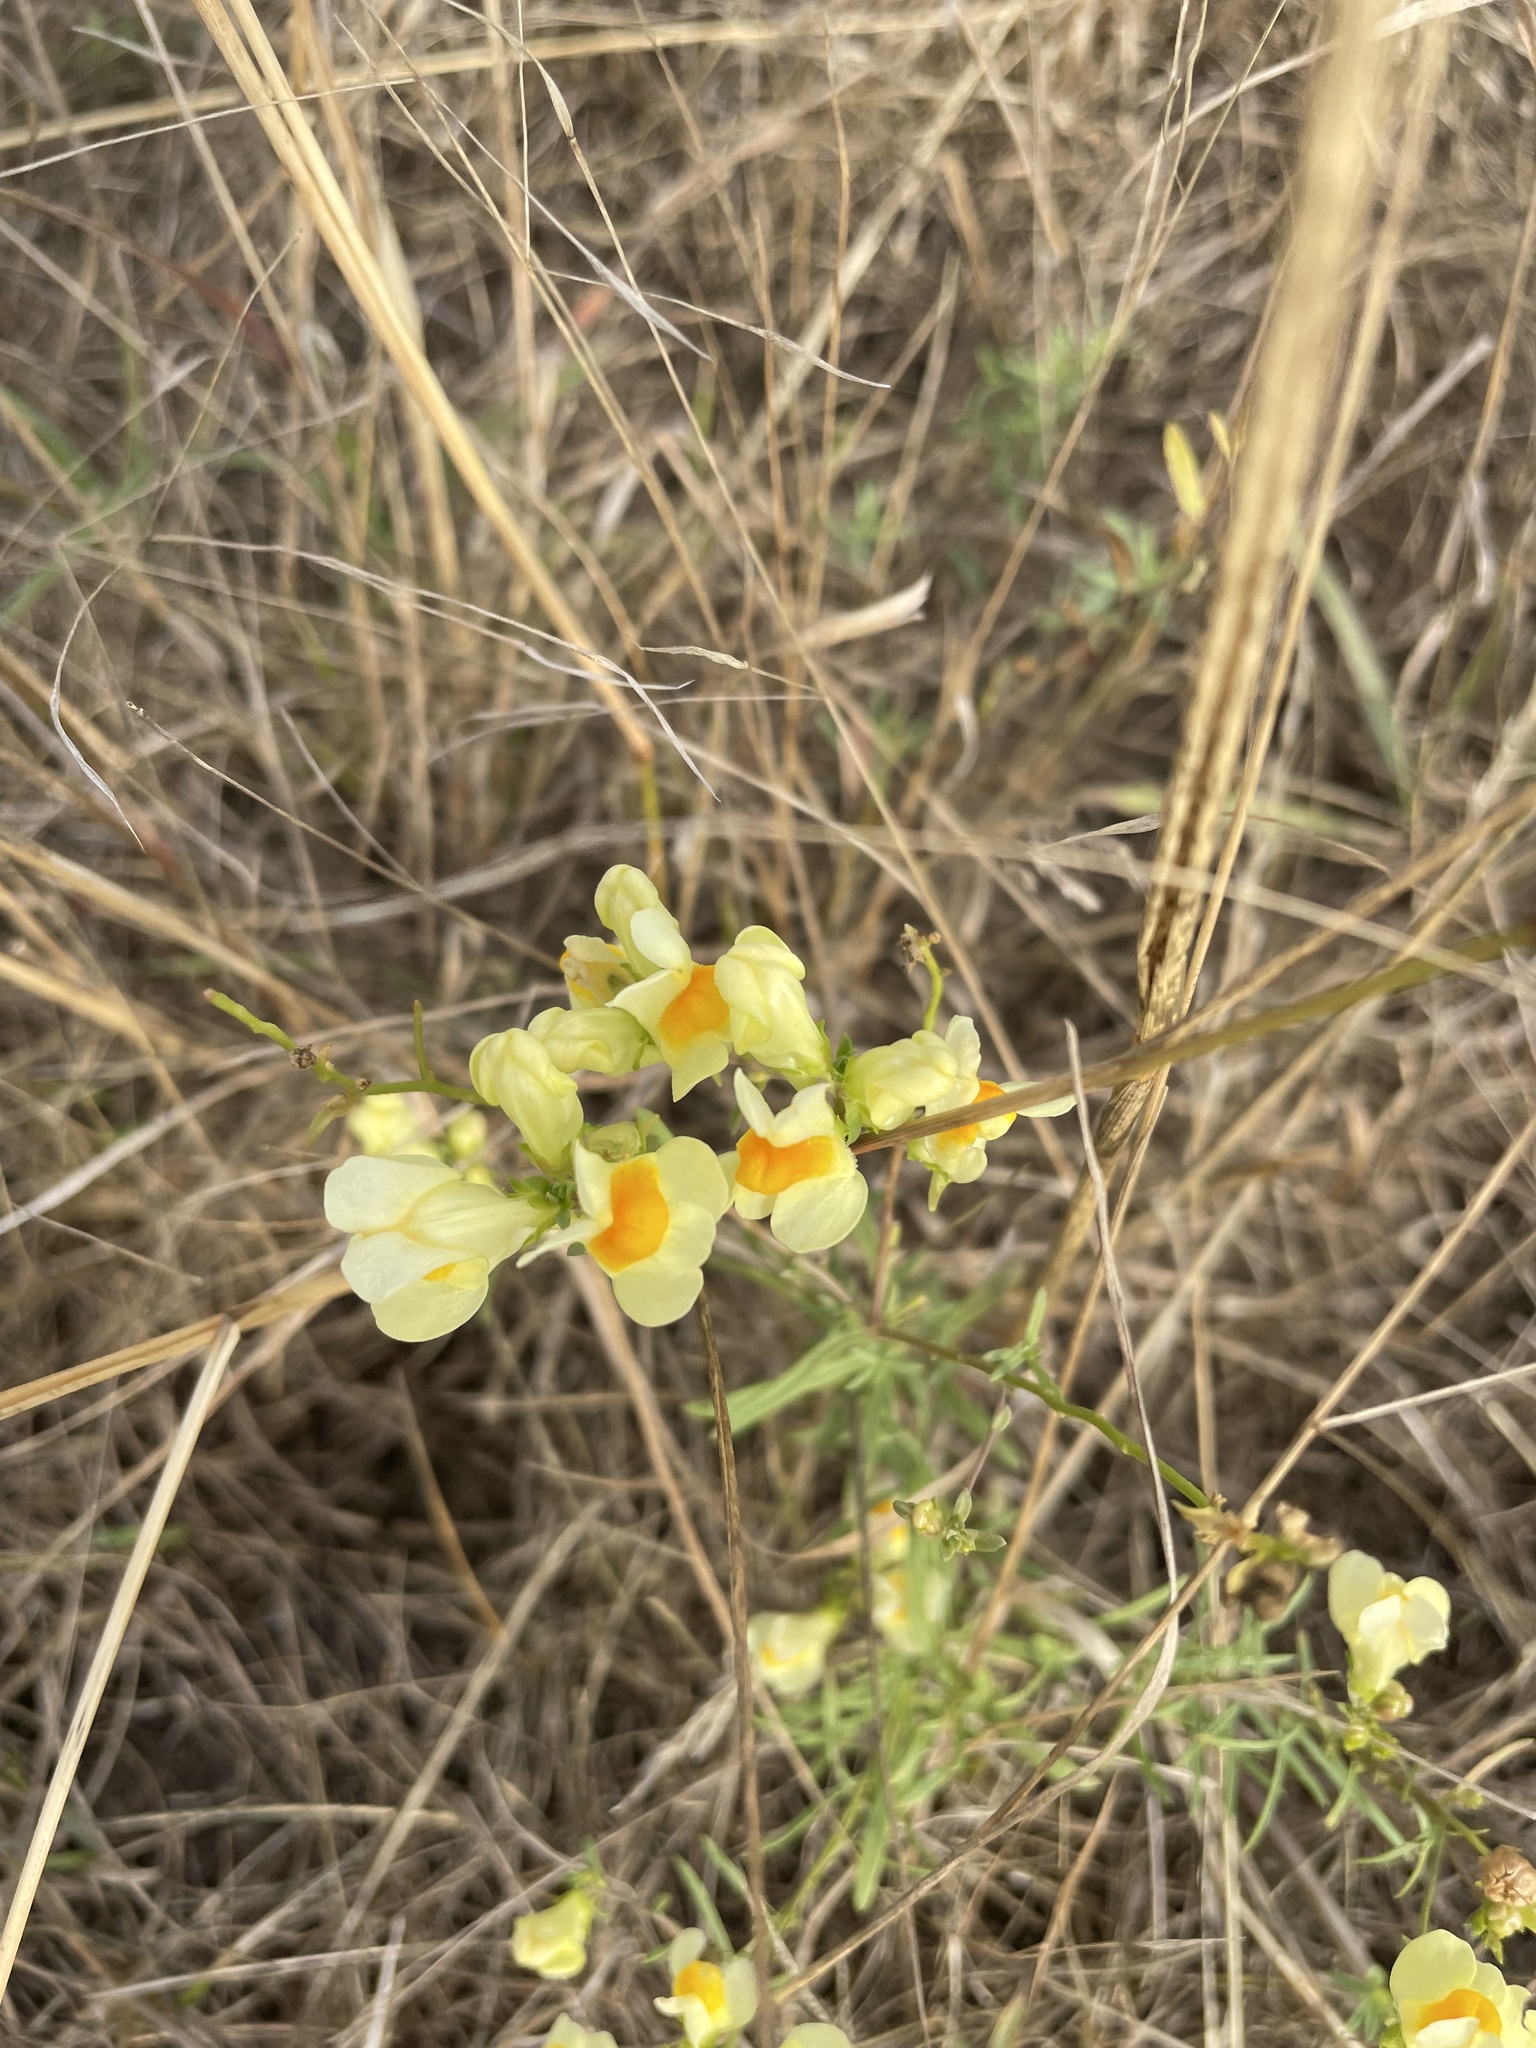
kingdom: Plantae
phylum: Tracheophyta
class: Magnoliopsida
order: Lamiales
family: Plantaginaceae
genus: Linaria
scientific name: Linaria vulgaris
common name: Butter and eggs
